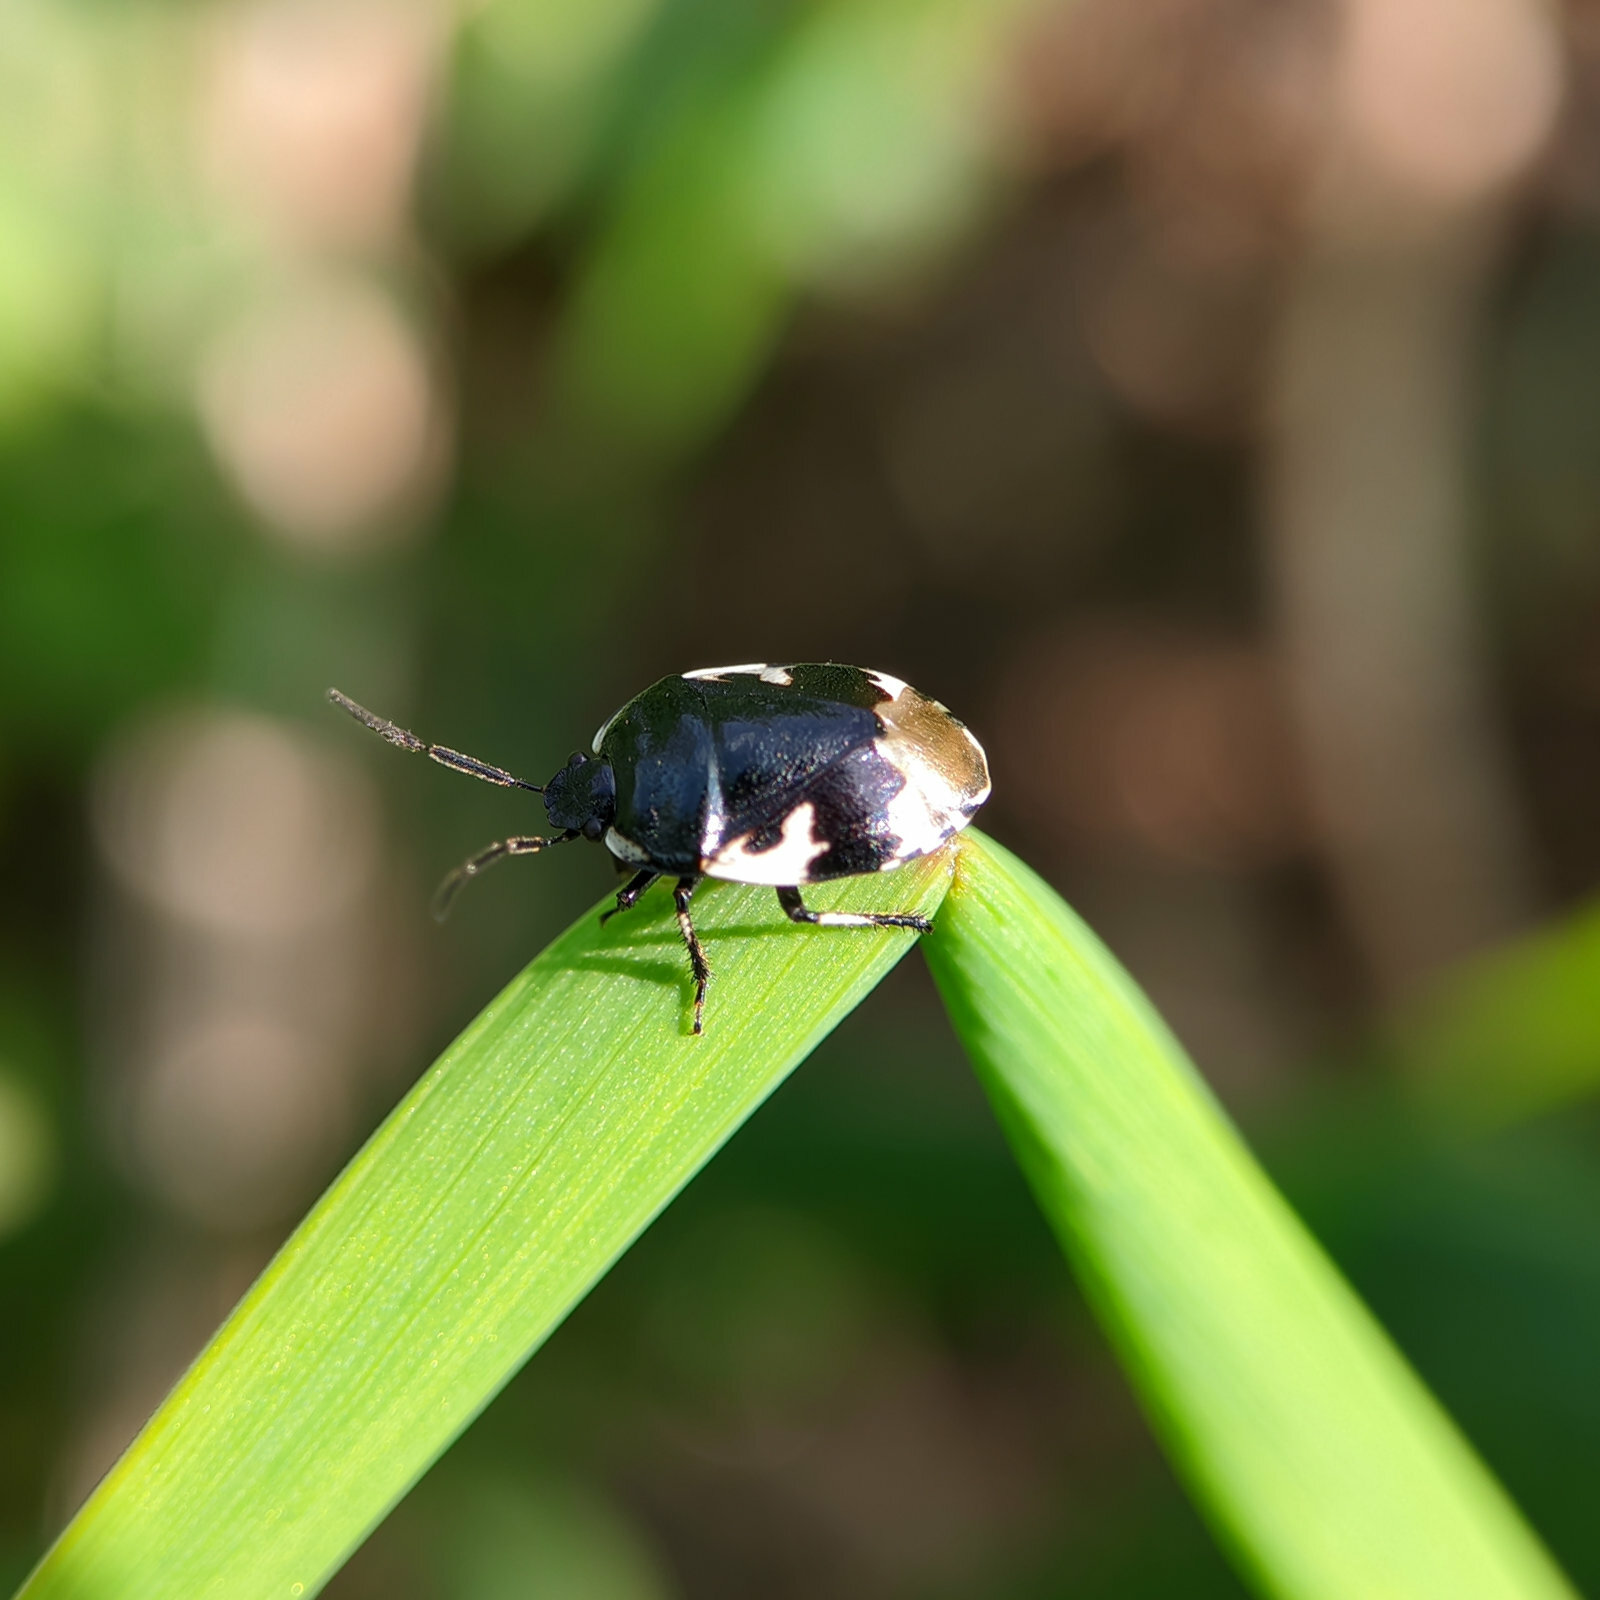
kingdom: Animalia
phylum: Arthropoda
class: Insecta
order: Hemiptera
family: Cydnidae
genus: Tritomegas
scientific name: Tritomegas bicolor
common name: Pied shieldbug
